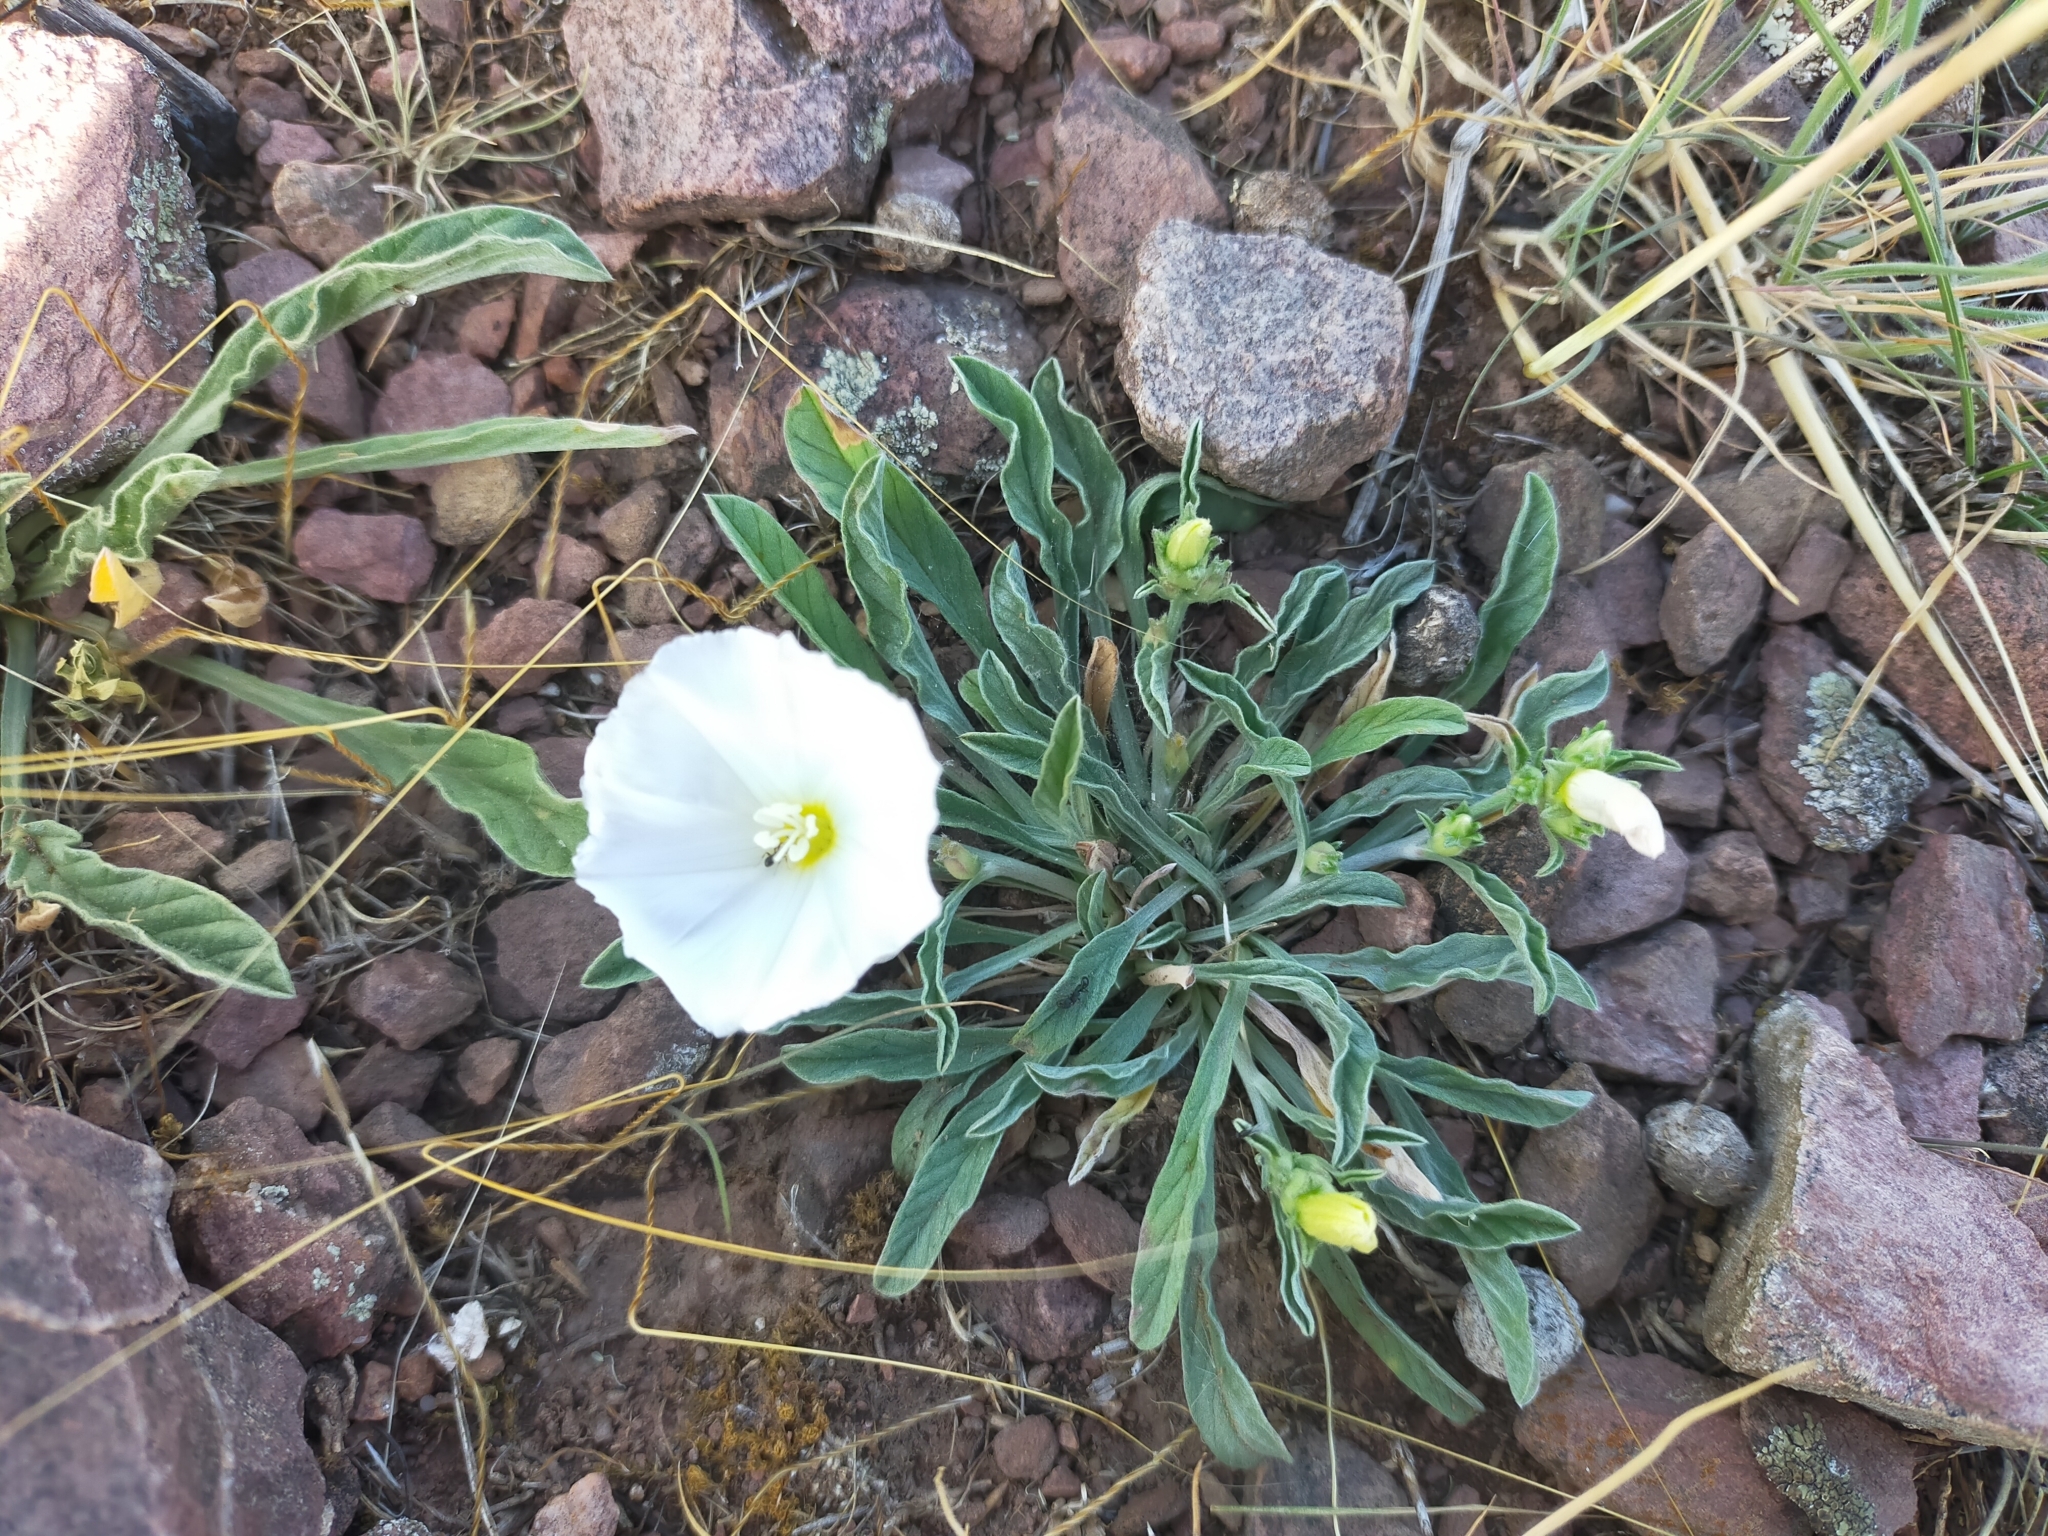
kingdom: Plantae
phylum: Tracheophyta
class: Magnoliopsida
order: Solanales
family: Convolvulaceae
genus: Convolvulus
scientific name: Convolvulus lineatus
